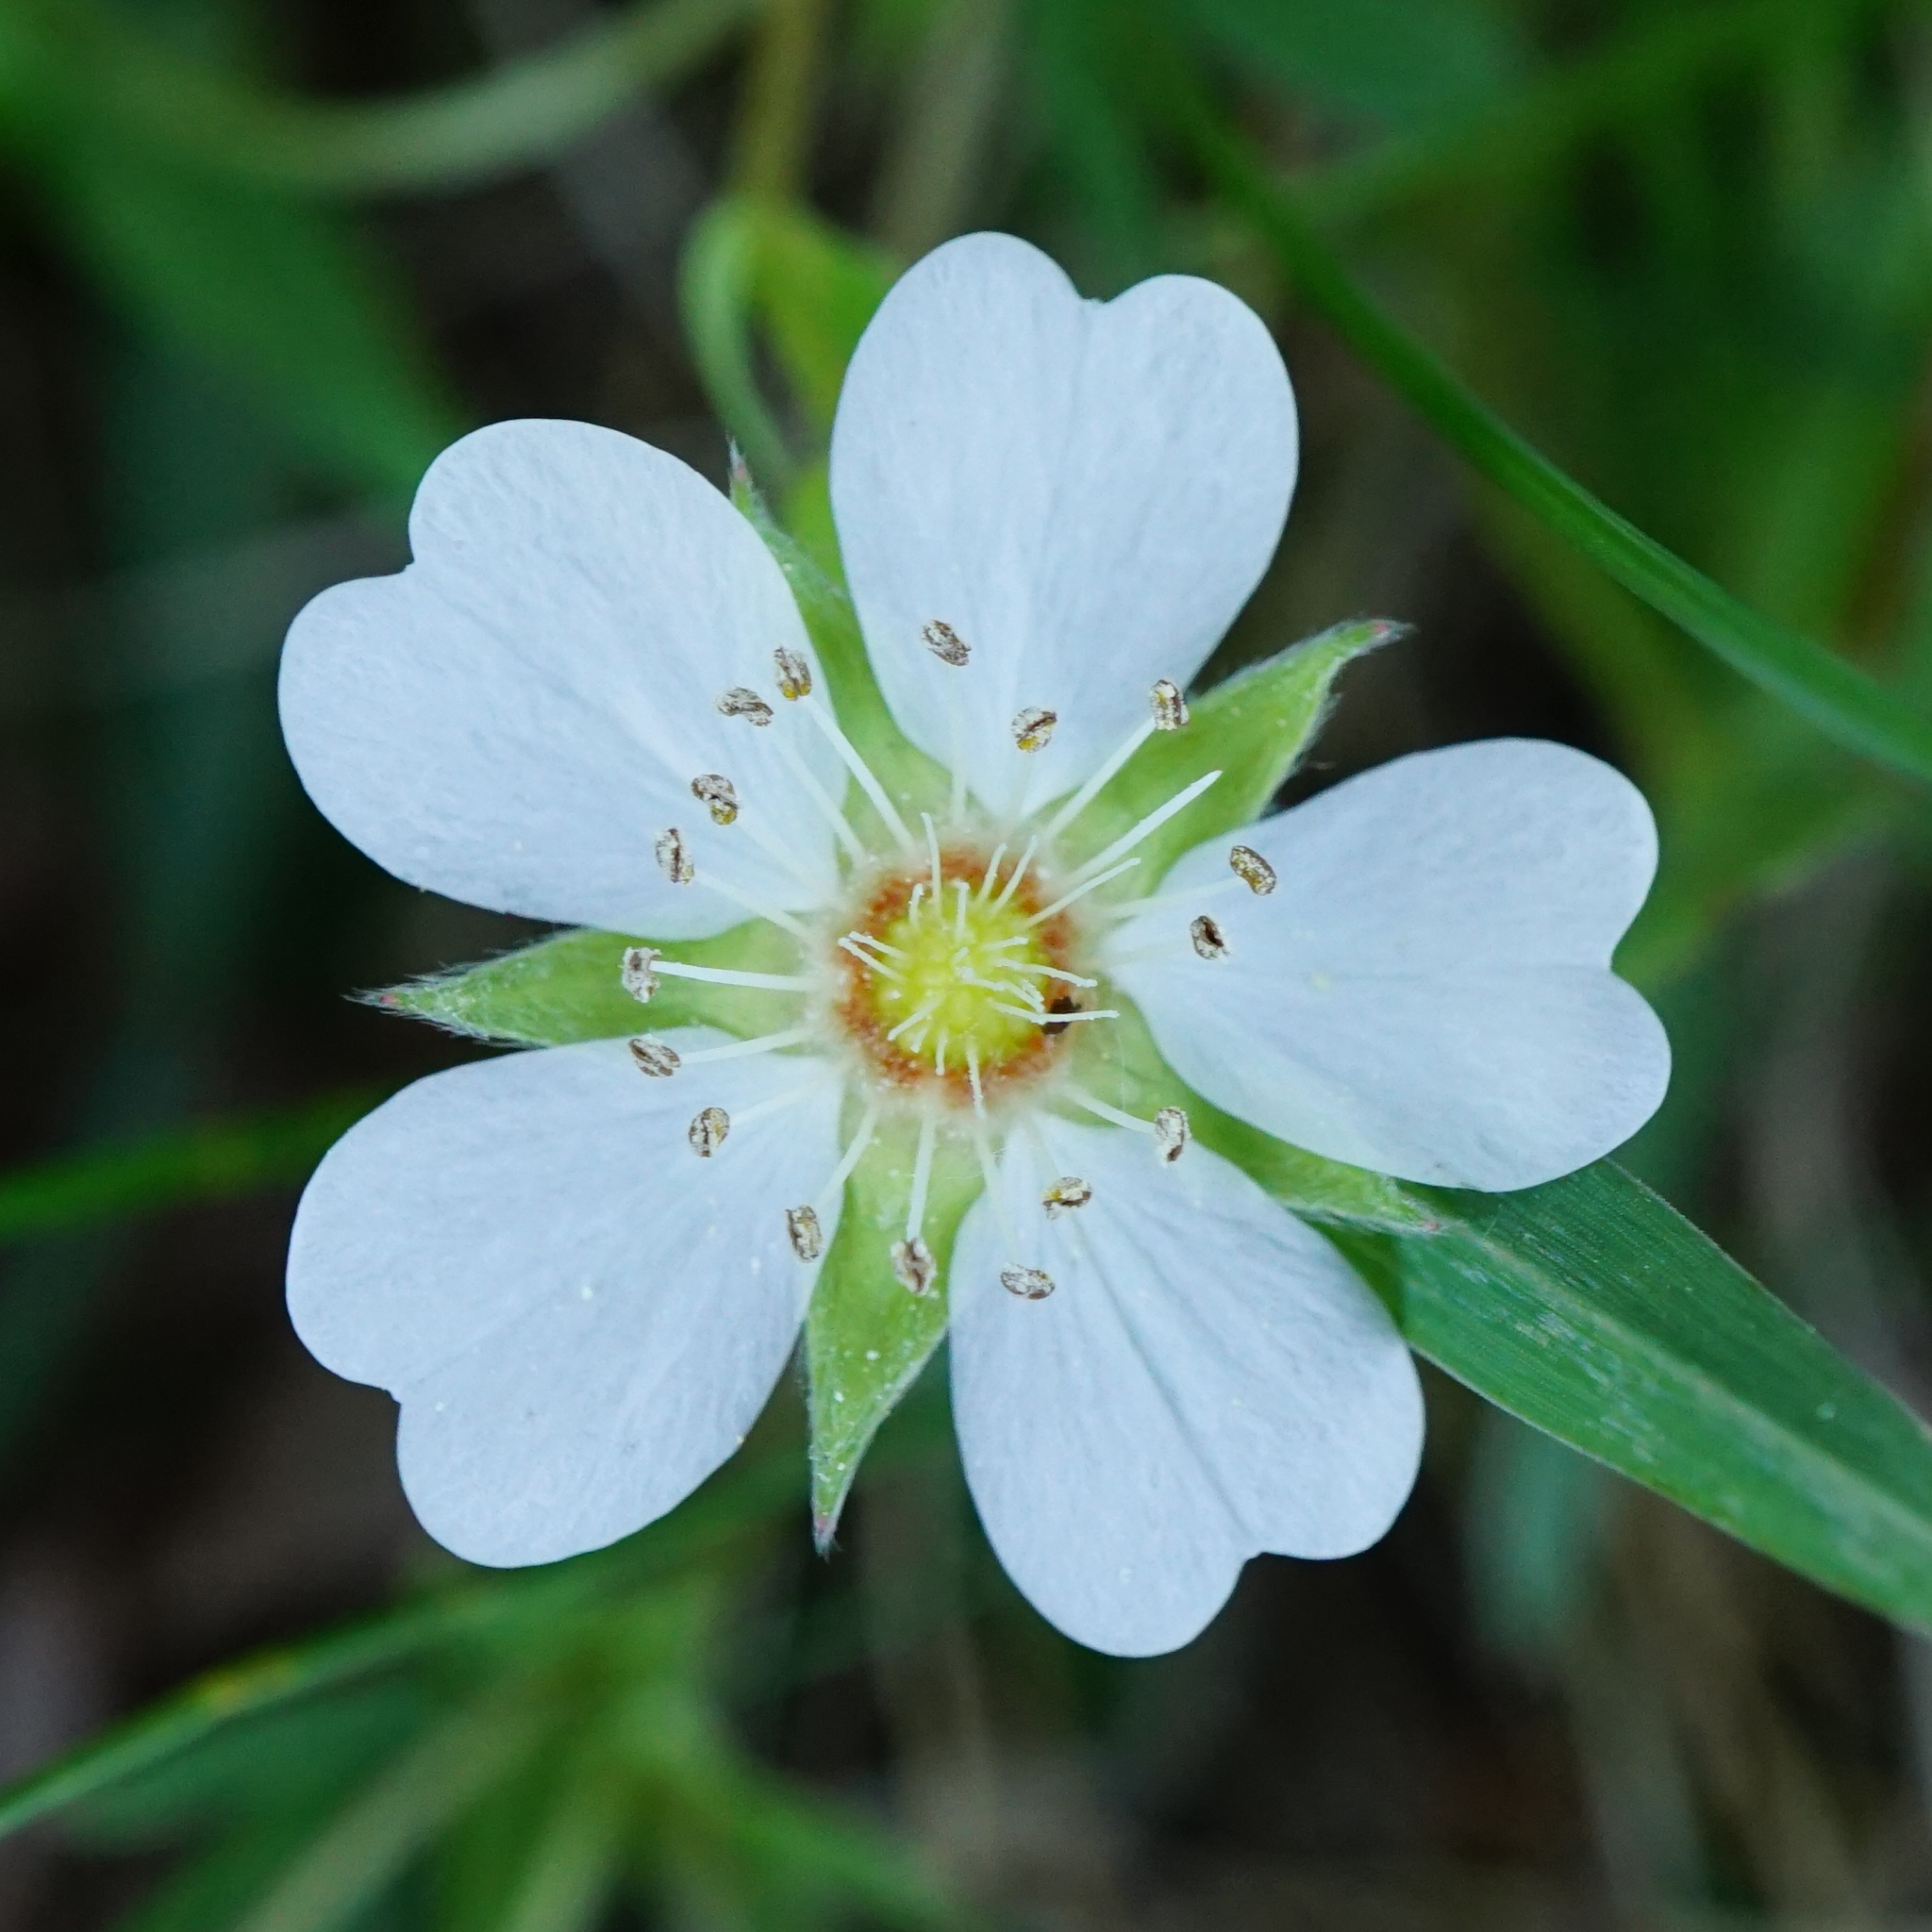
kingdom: Plantae
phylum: Tracheophyta
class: Magnoliopsida
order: Rosales
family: Rosaceae
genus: Potentilla
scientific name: Potentilla alba
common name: White cinquefoil
